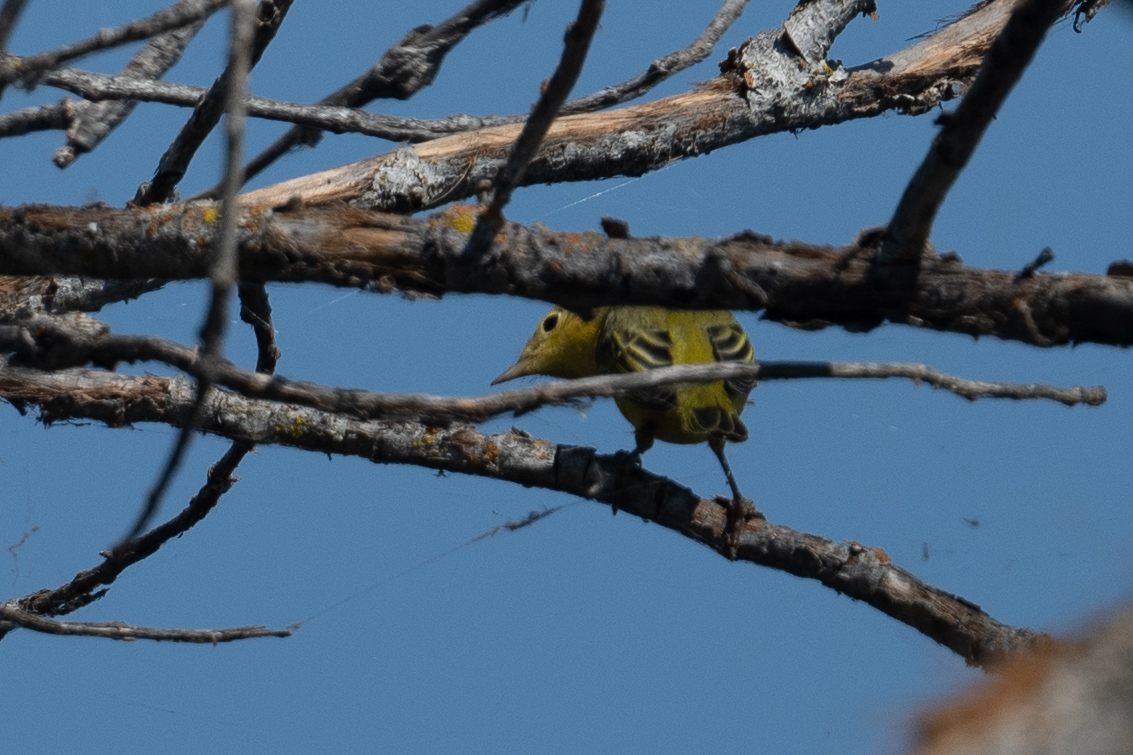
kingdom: Animalia
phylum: Chordata
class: Aves
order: Passeriformes
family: Parulidae
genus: Setophaga
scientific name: Setophaga petechia
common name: Yellow warbler
